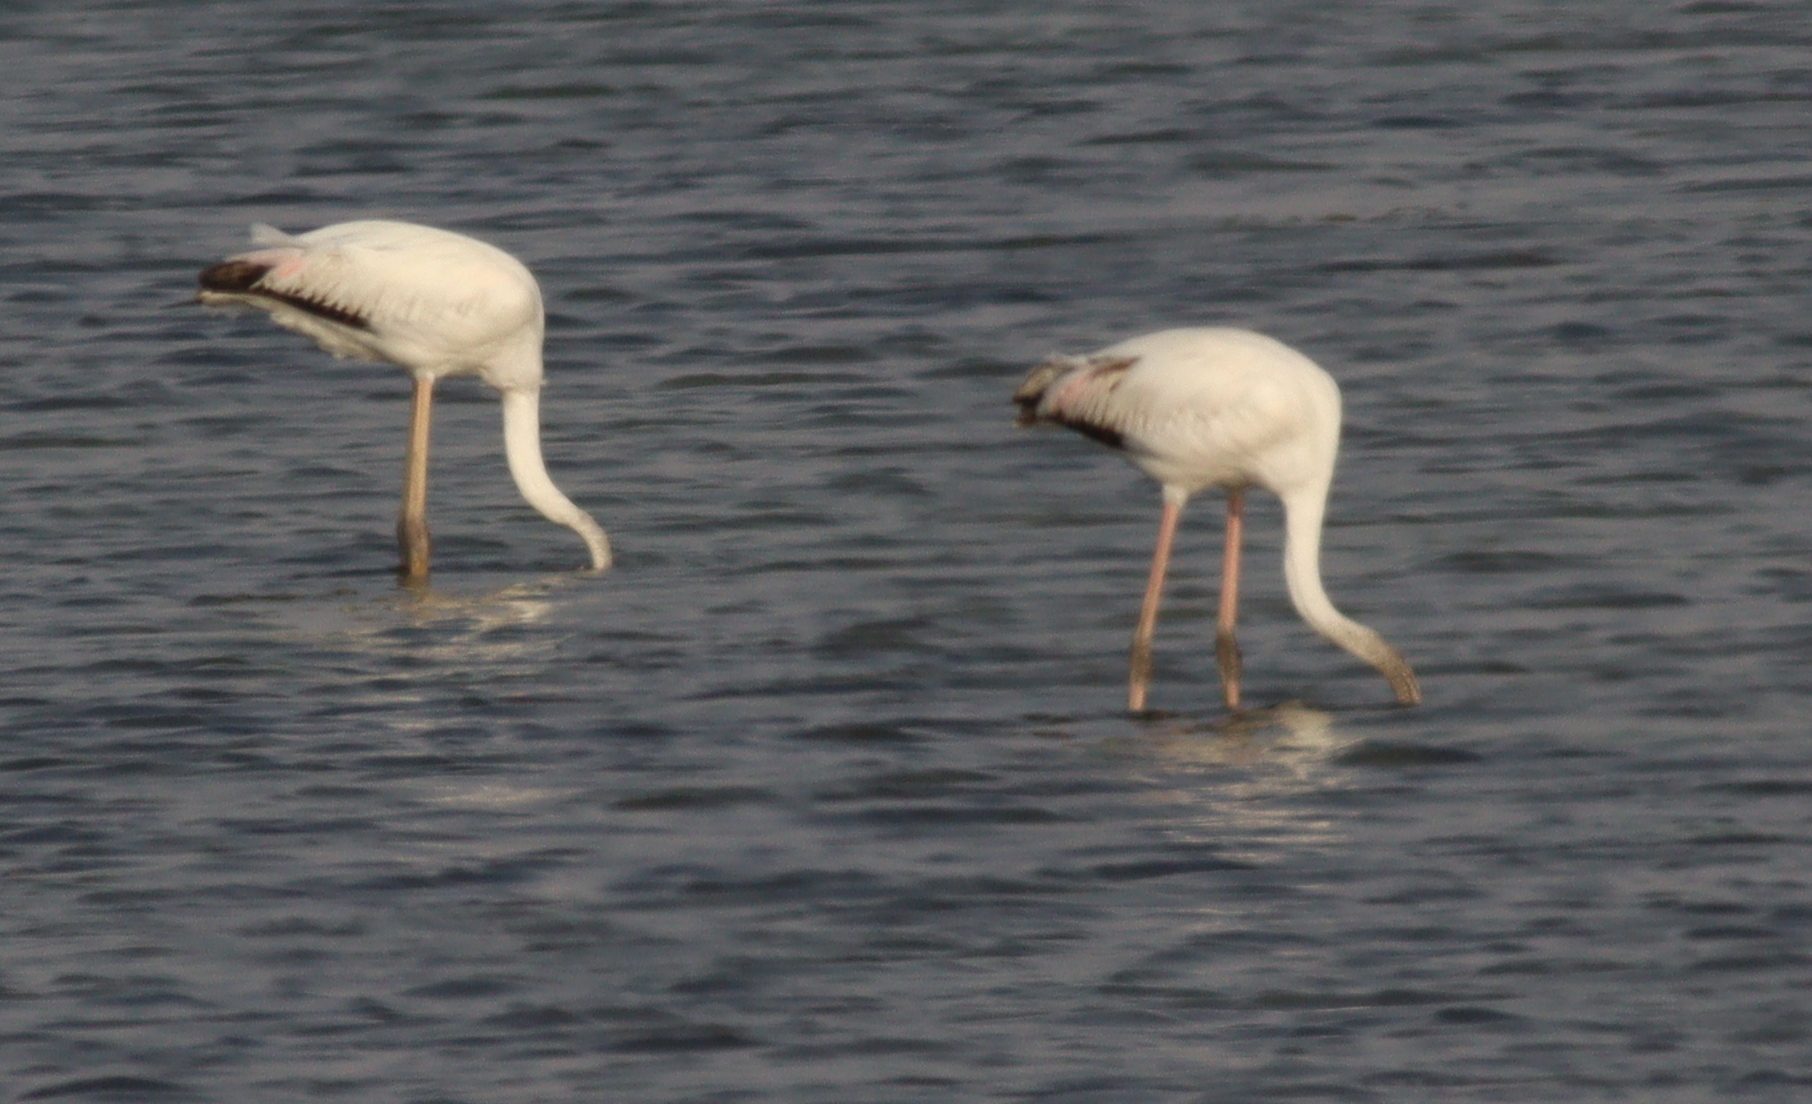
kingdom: Animalia
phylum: Chordata
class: Aves
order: Phoenicopteriformes
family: Phoenicopteridae
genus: Phoenicopterus
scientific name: Phoenicopterus roseus
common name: Greater flamingo
